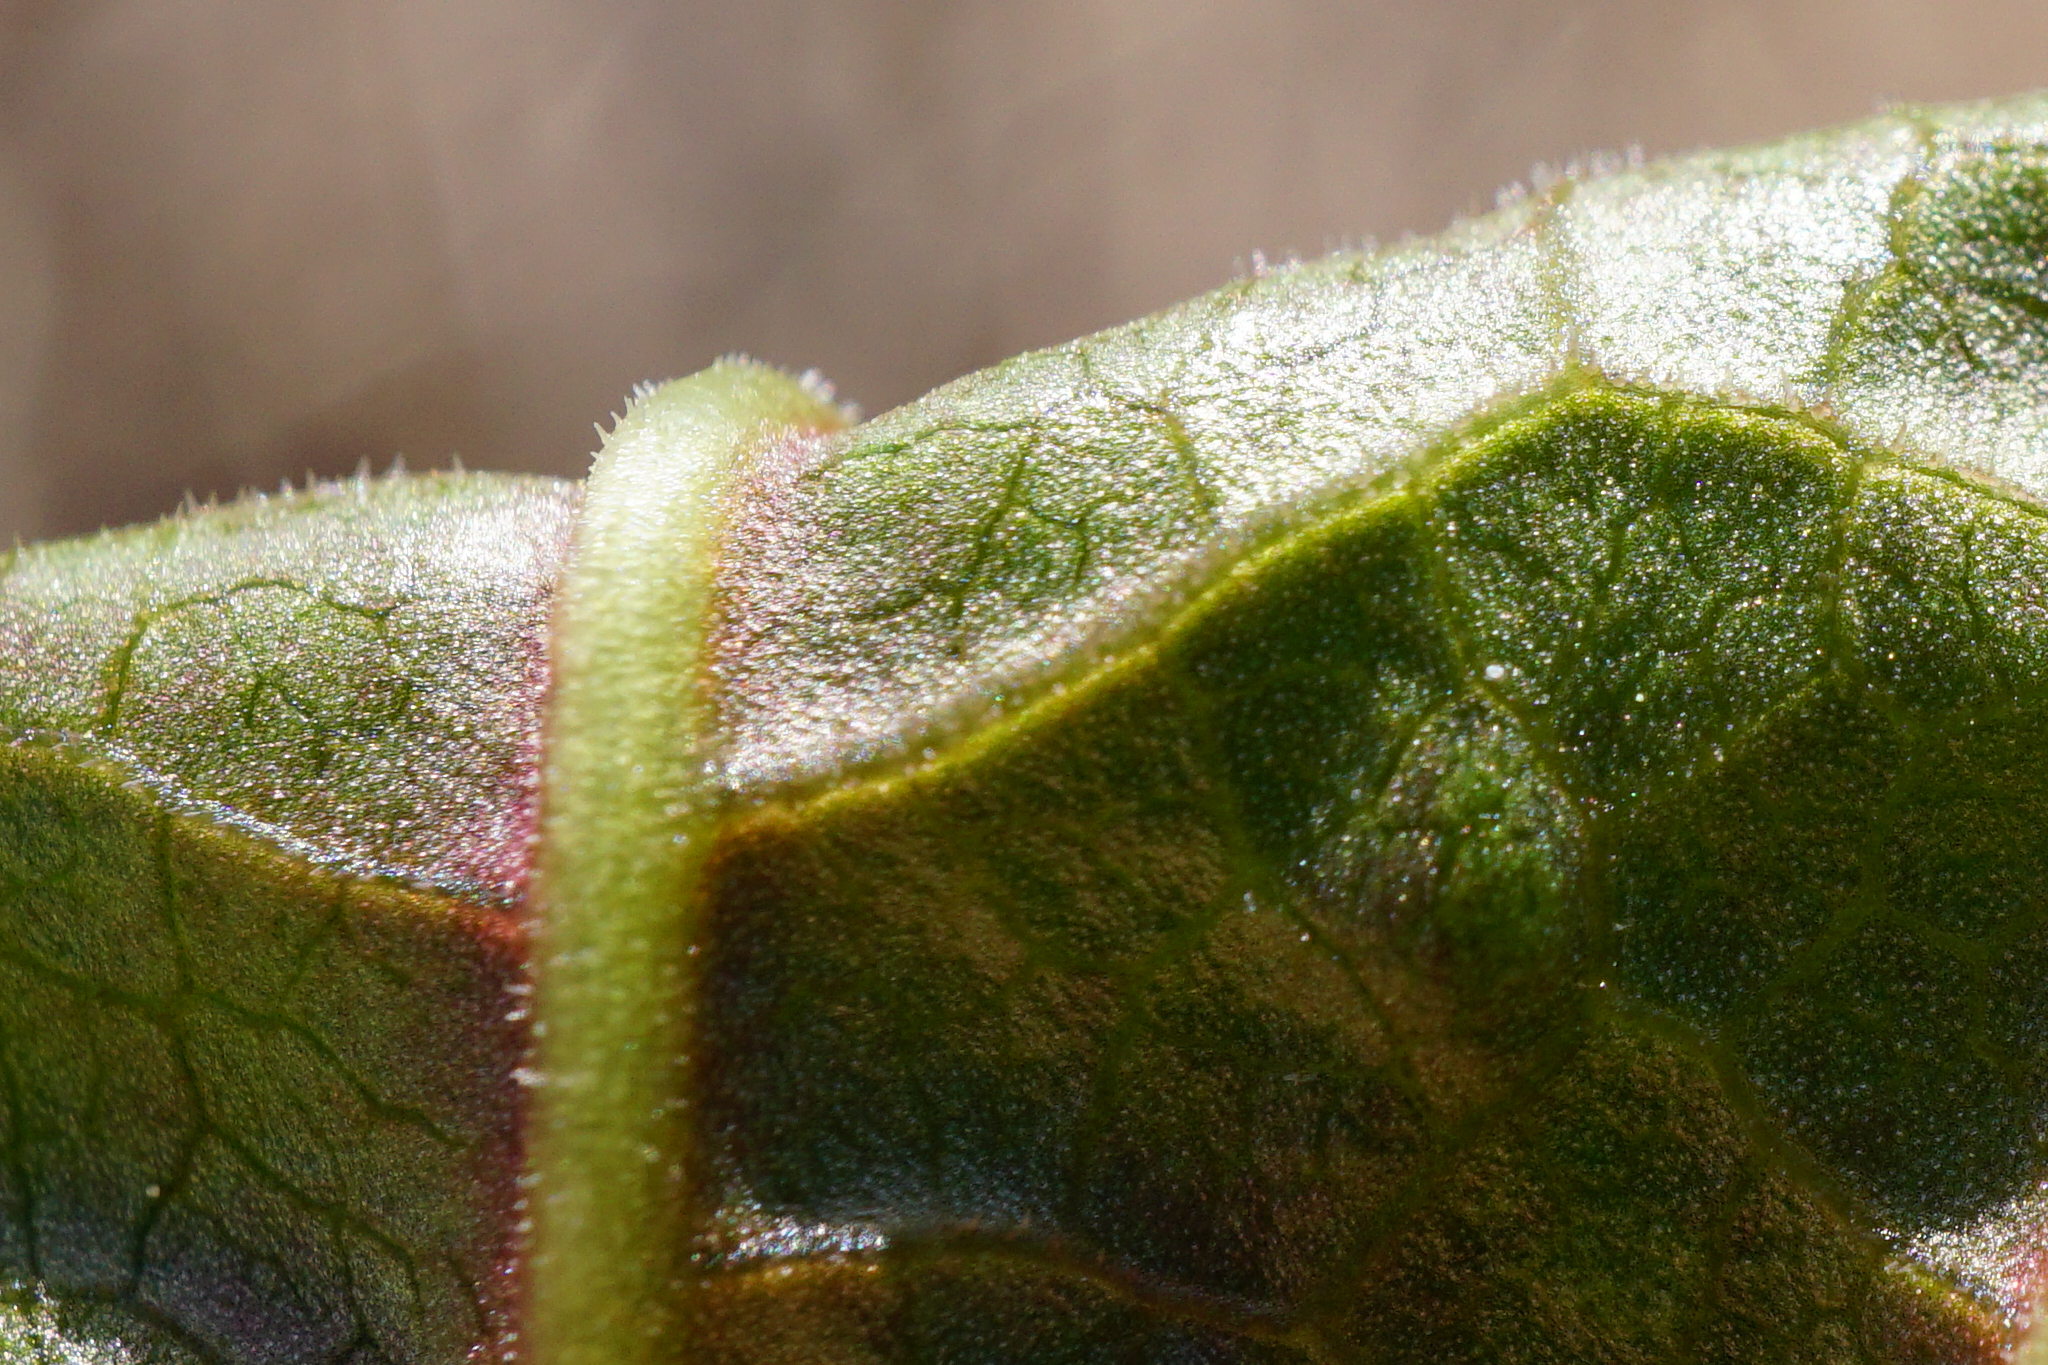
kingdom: Plantae
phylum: Tracheophyta
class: Magnoliopsida
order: Caryophyllales
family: Polygonaceae
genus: Reynoutria
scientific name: Reynoutria bohemica
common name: Bohemian knotweed
